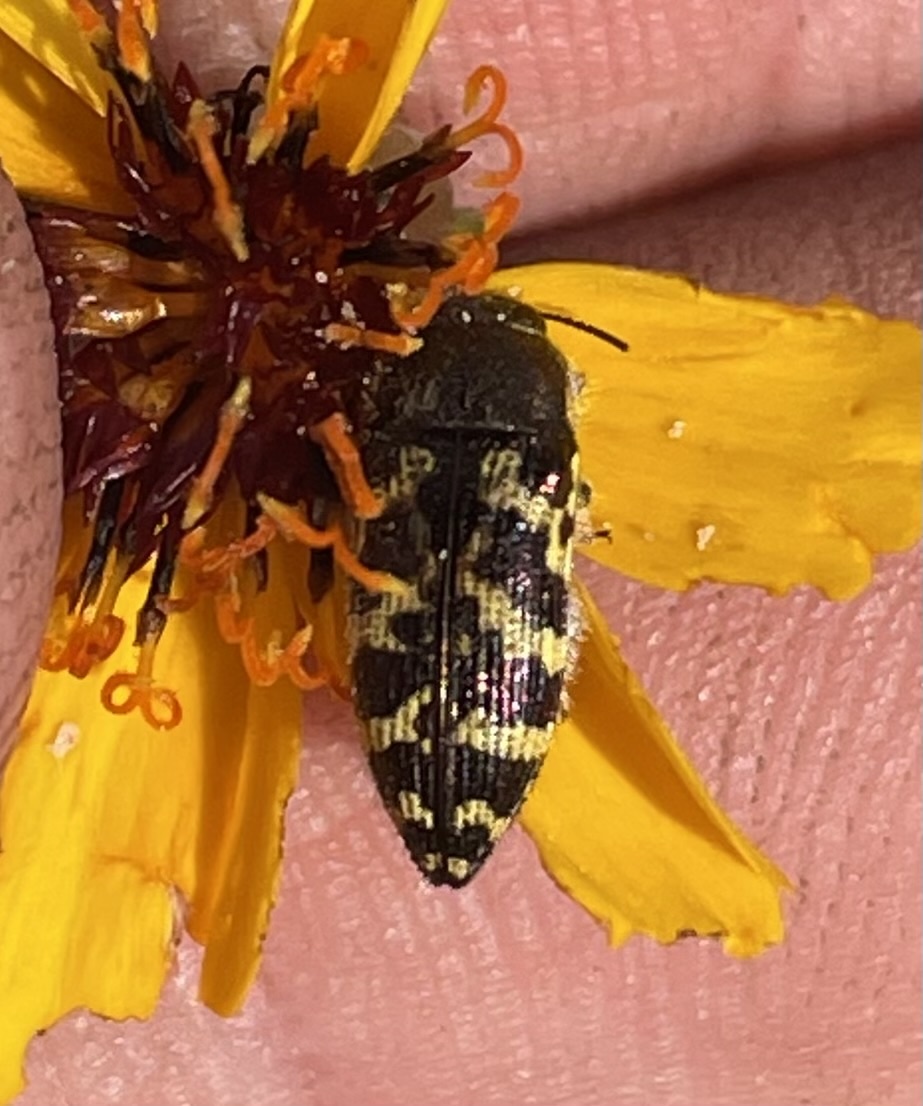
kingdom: Animalia
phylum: Arthropoda
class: Insecta
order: Coleoptera
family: Buprestidae
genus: Acmaeodera
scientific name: Acmaeodera mixta
